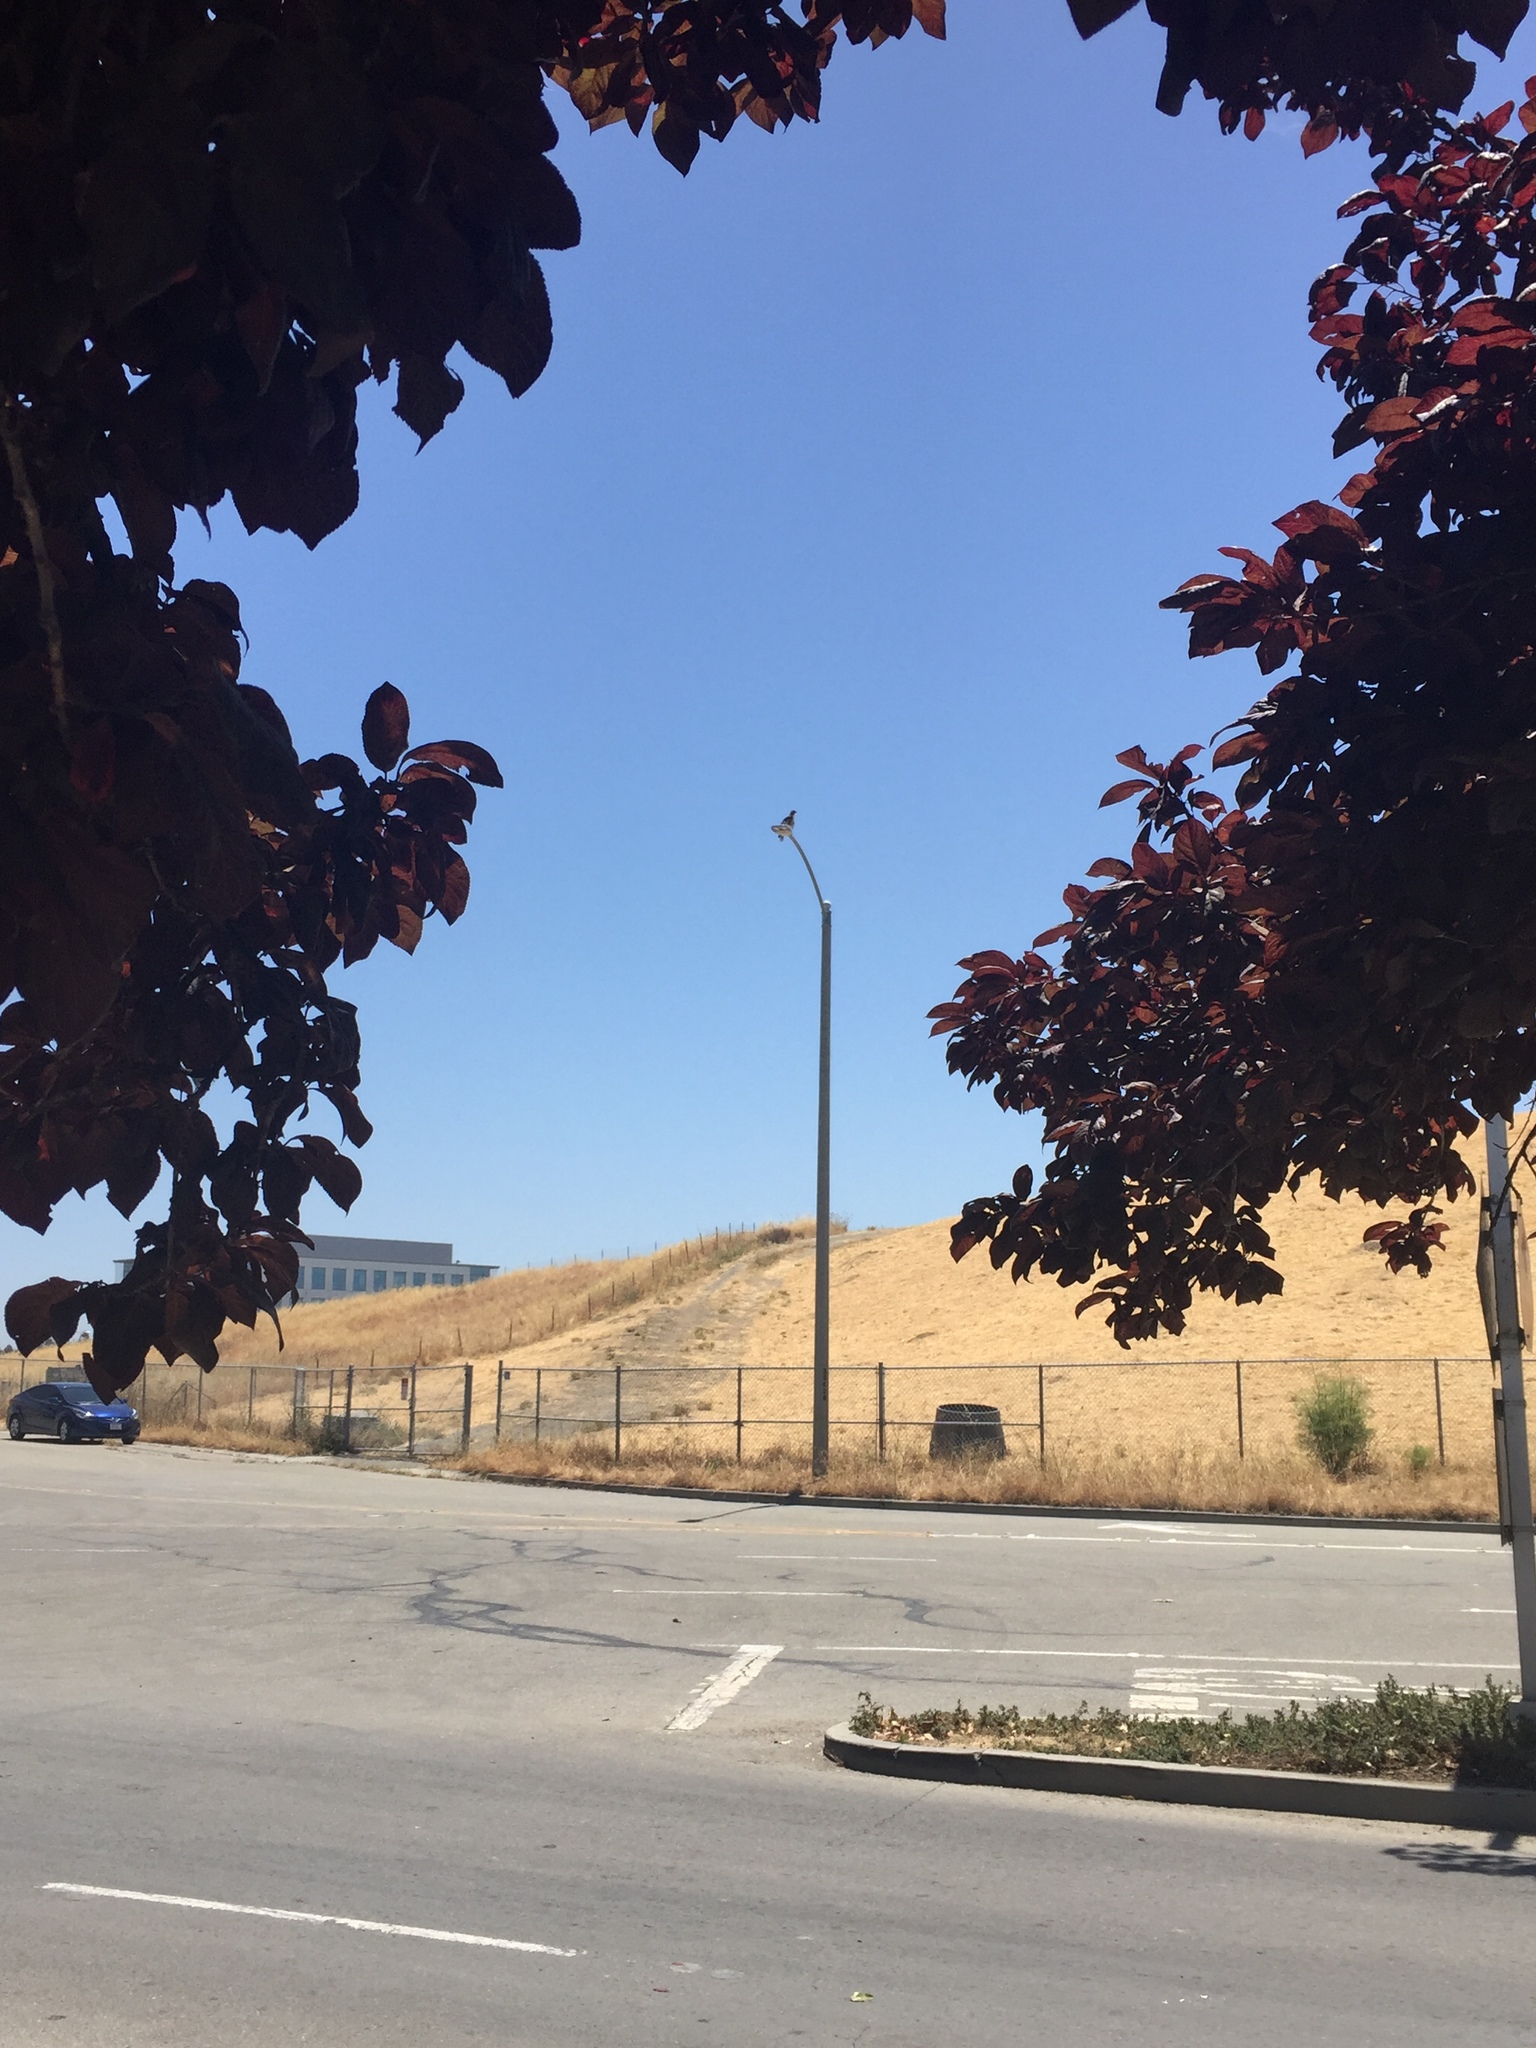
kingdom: Animalia
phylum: Chordata
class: Aves
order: Accipitriformes
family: Accipitridae
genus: Buteo
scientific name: Buteo jamaicensis
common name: Red-tailed hawk
